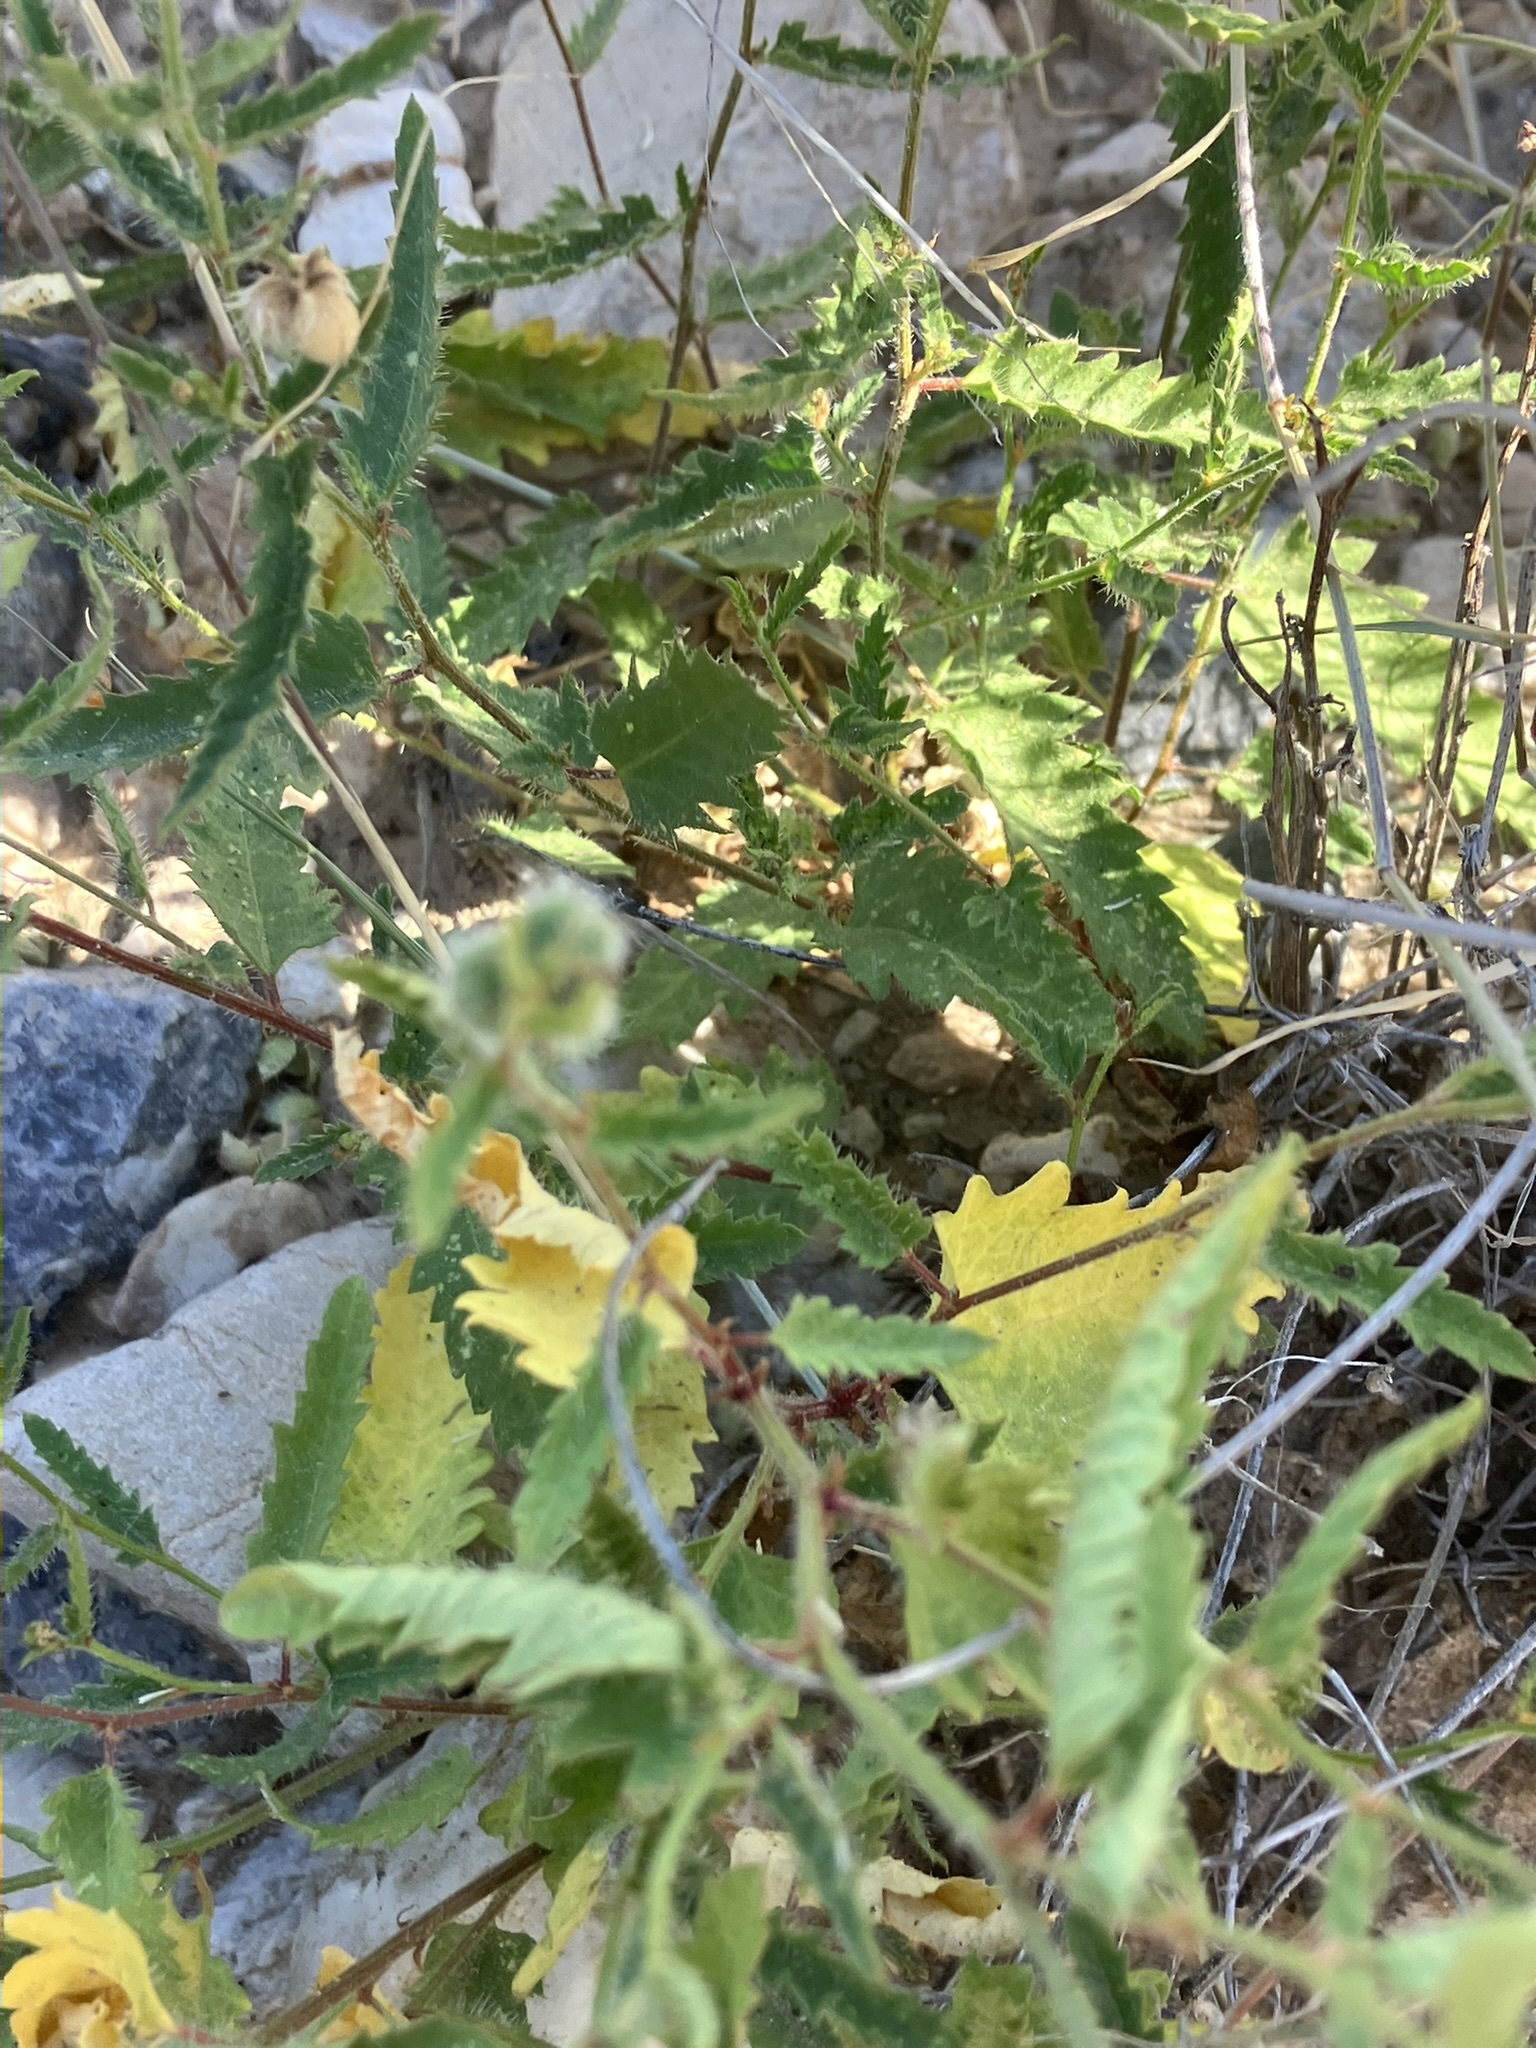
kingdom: Plantae
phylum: Tracheophyta
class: Magnoliopsida
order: Malpighiales
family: Euphorbiaceae
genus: Tragia
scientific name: Tragia ramosa
